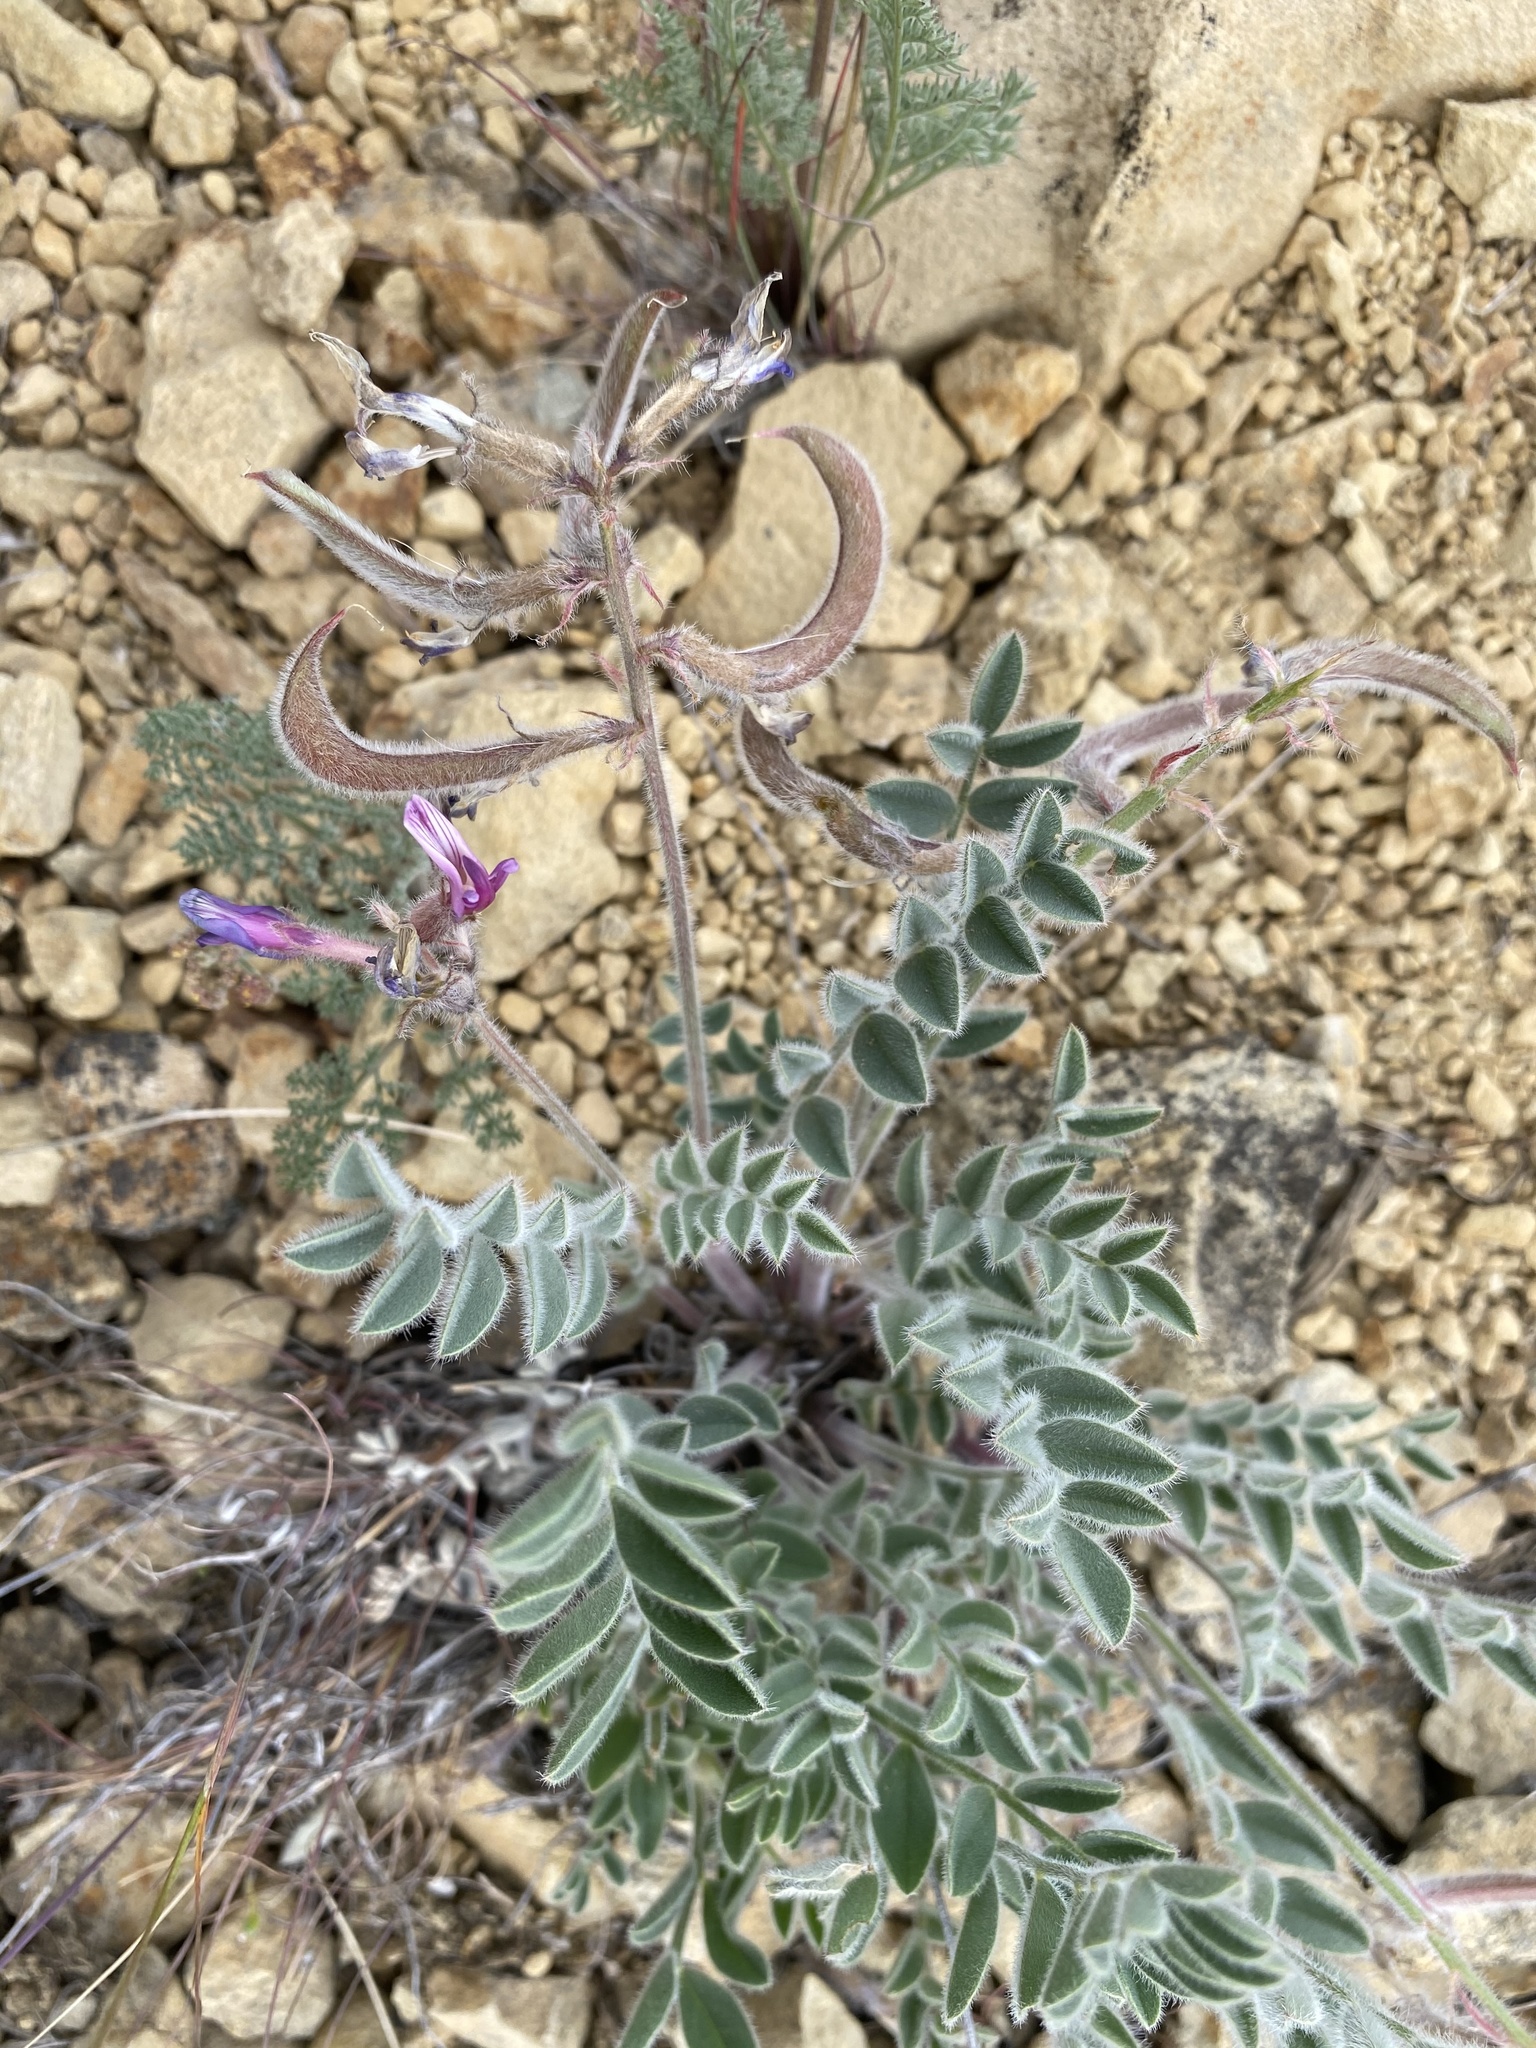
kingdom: Plantae
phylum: Tracheophyta
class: Magnoliopsida
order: Fabales
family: Fabaceae
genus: Astragalus
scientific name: Astragalus malacus
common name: Shaggy milk-vetch
